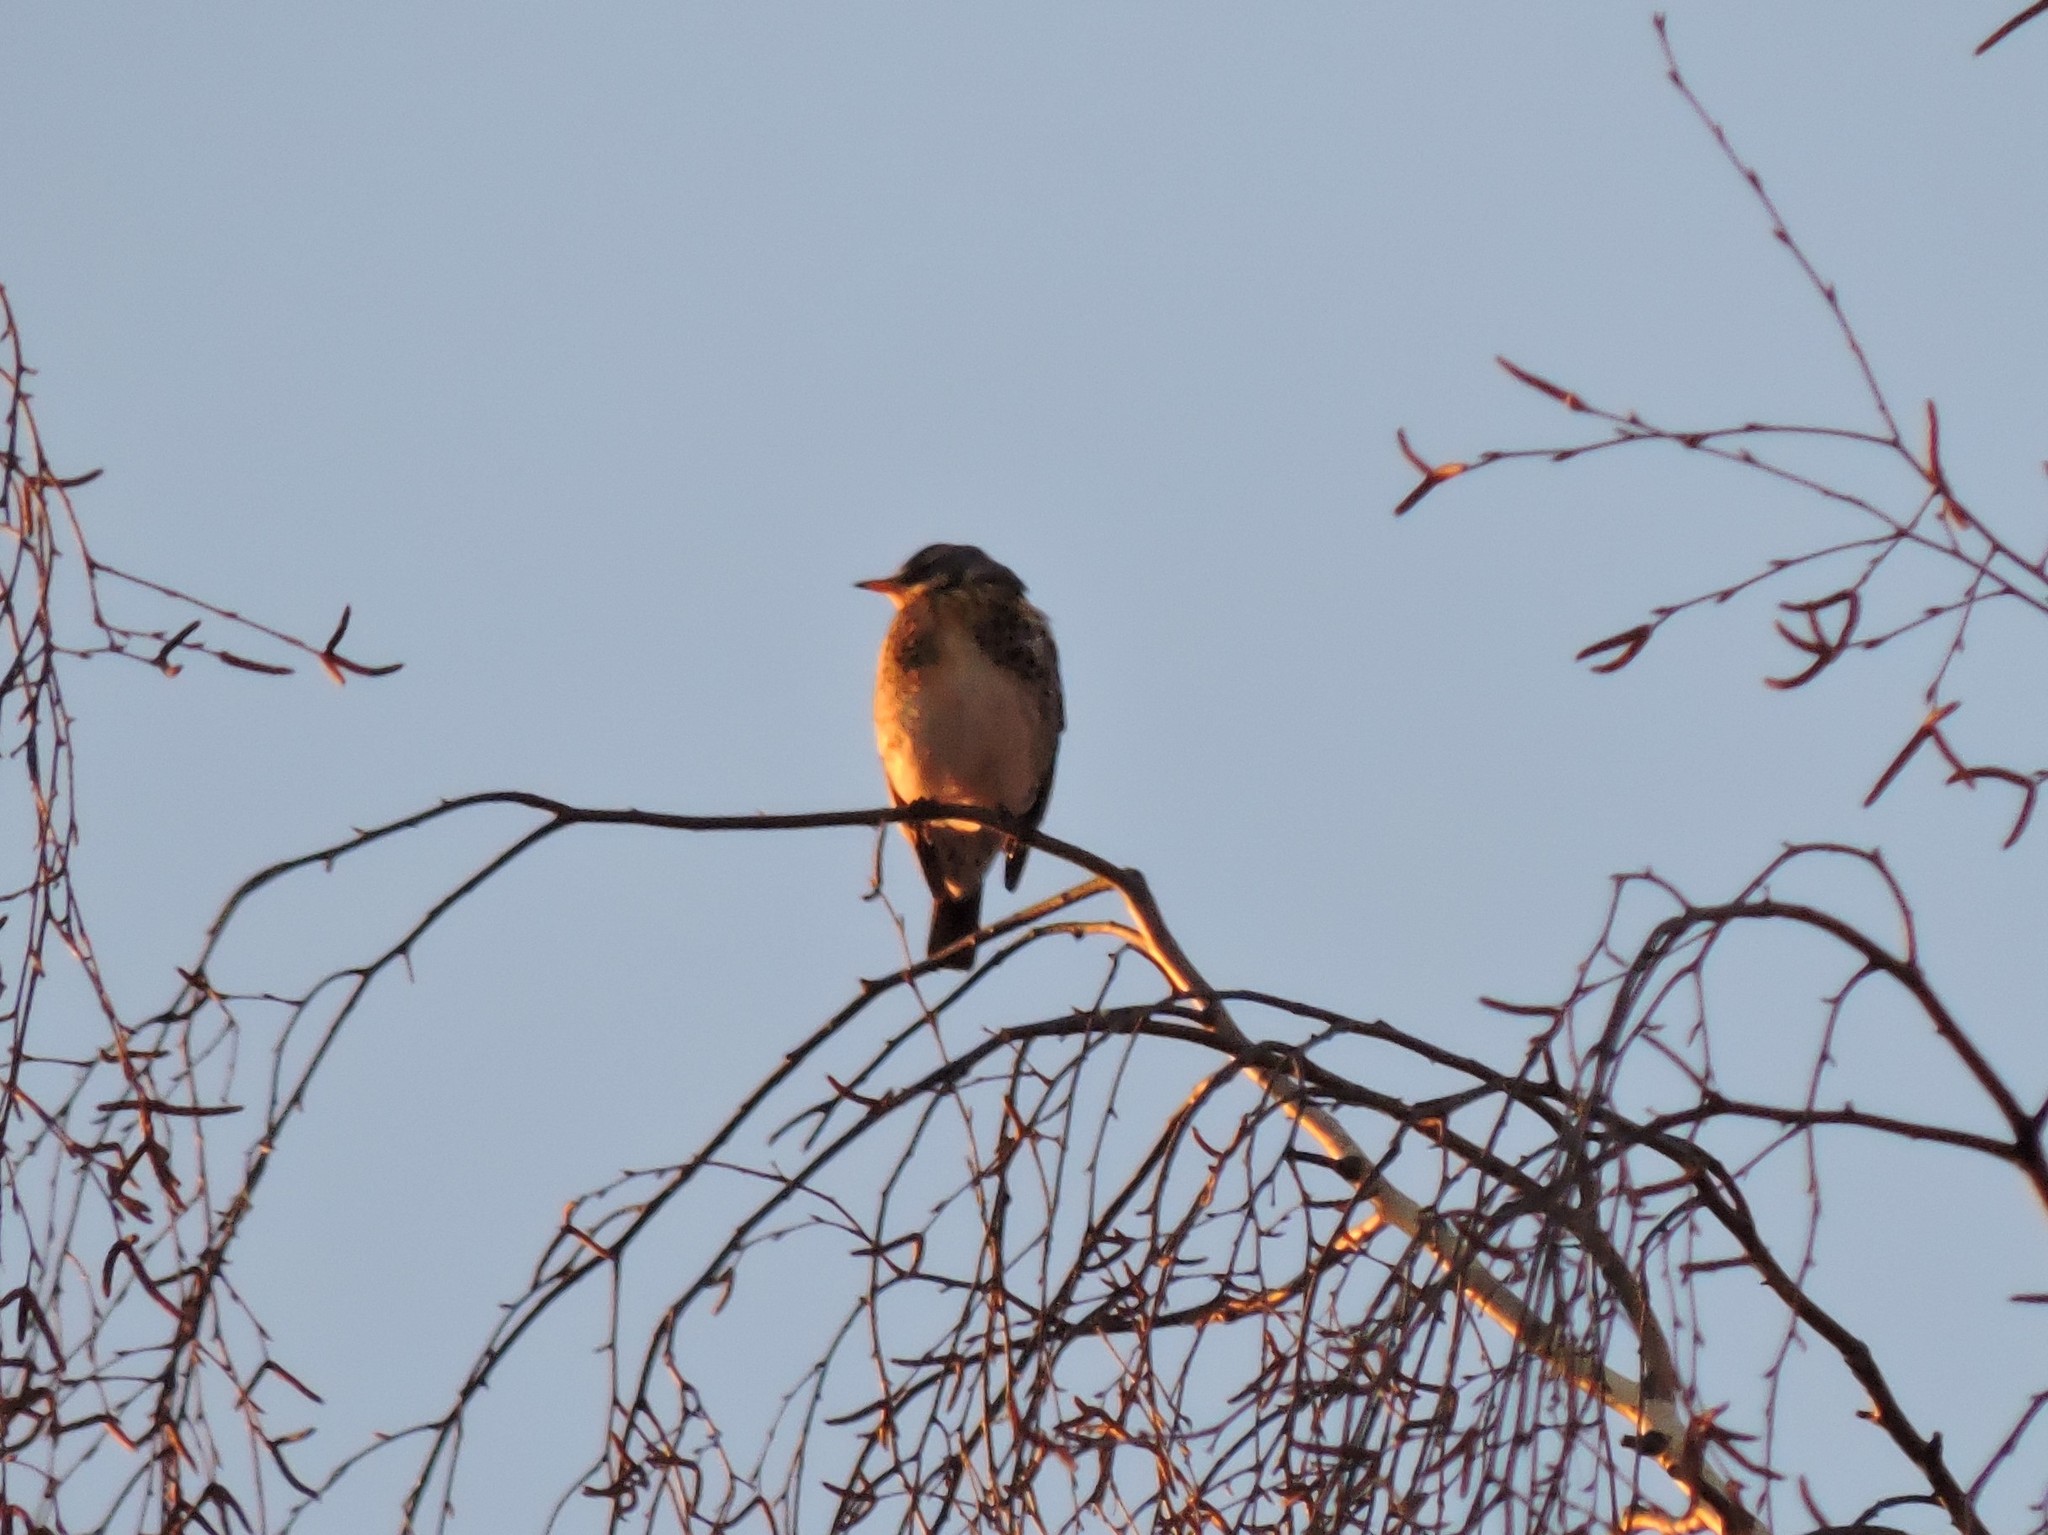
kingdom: Animalia
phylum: Chordata
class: Aves
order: Passeriformes
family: Turdidae
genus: Turdus
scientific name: Turdus pilaris
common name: Fieldfare
